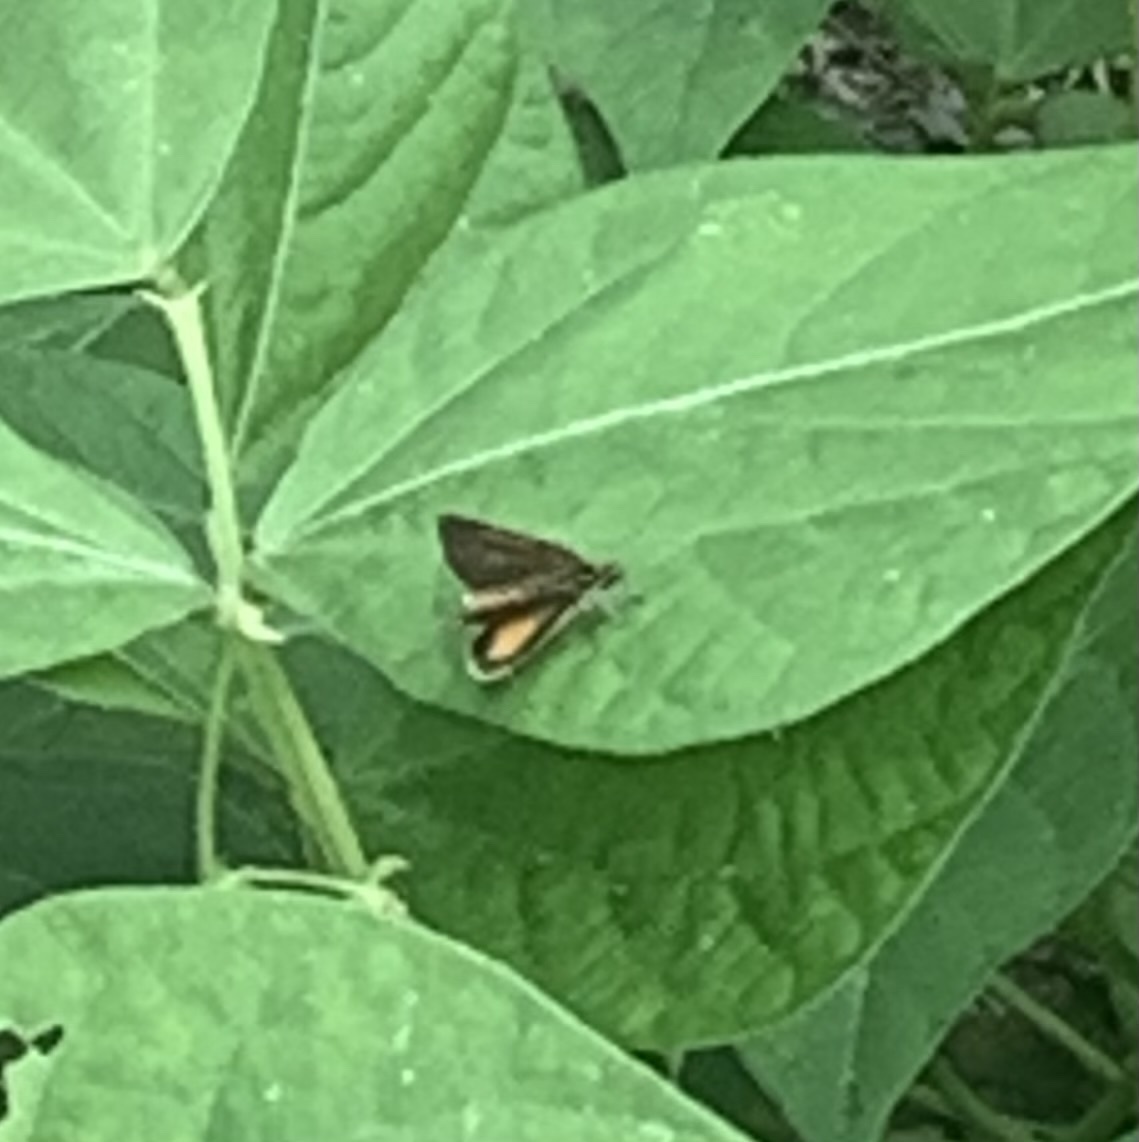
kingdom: Animalia
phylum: Arthropoda
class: Insecta
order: Lepidoptera
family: Hesperiidae
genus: Ancyloxypha
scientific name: Ancyloxypha numitor
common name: Least skipper
